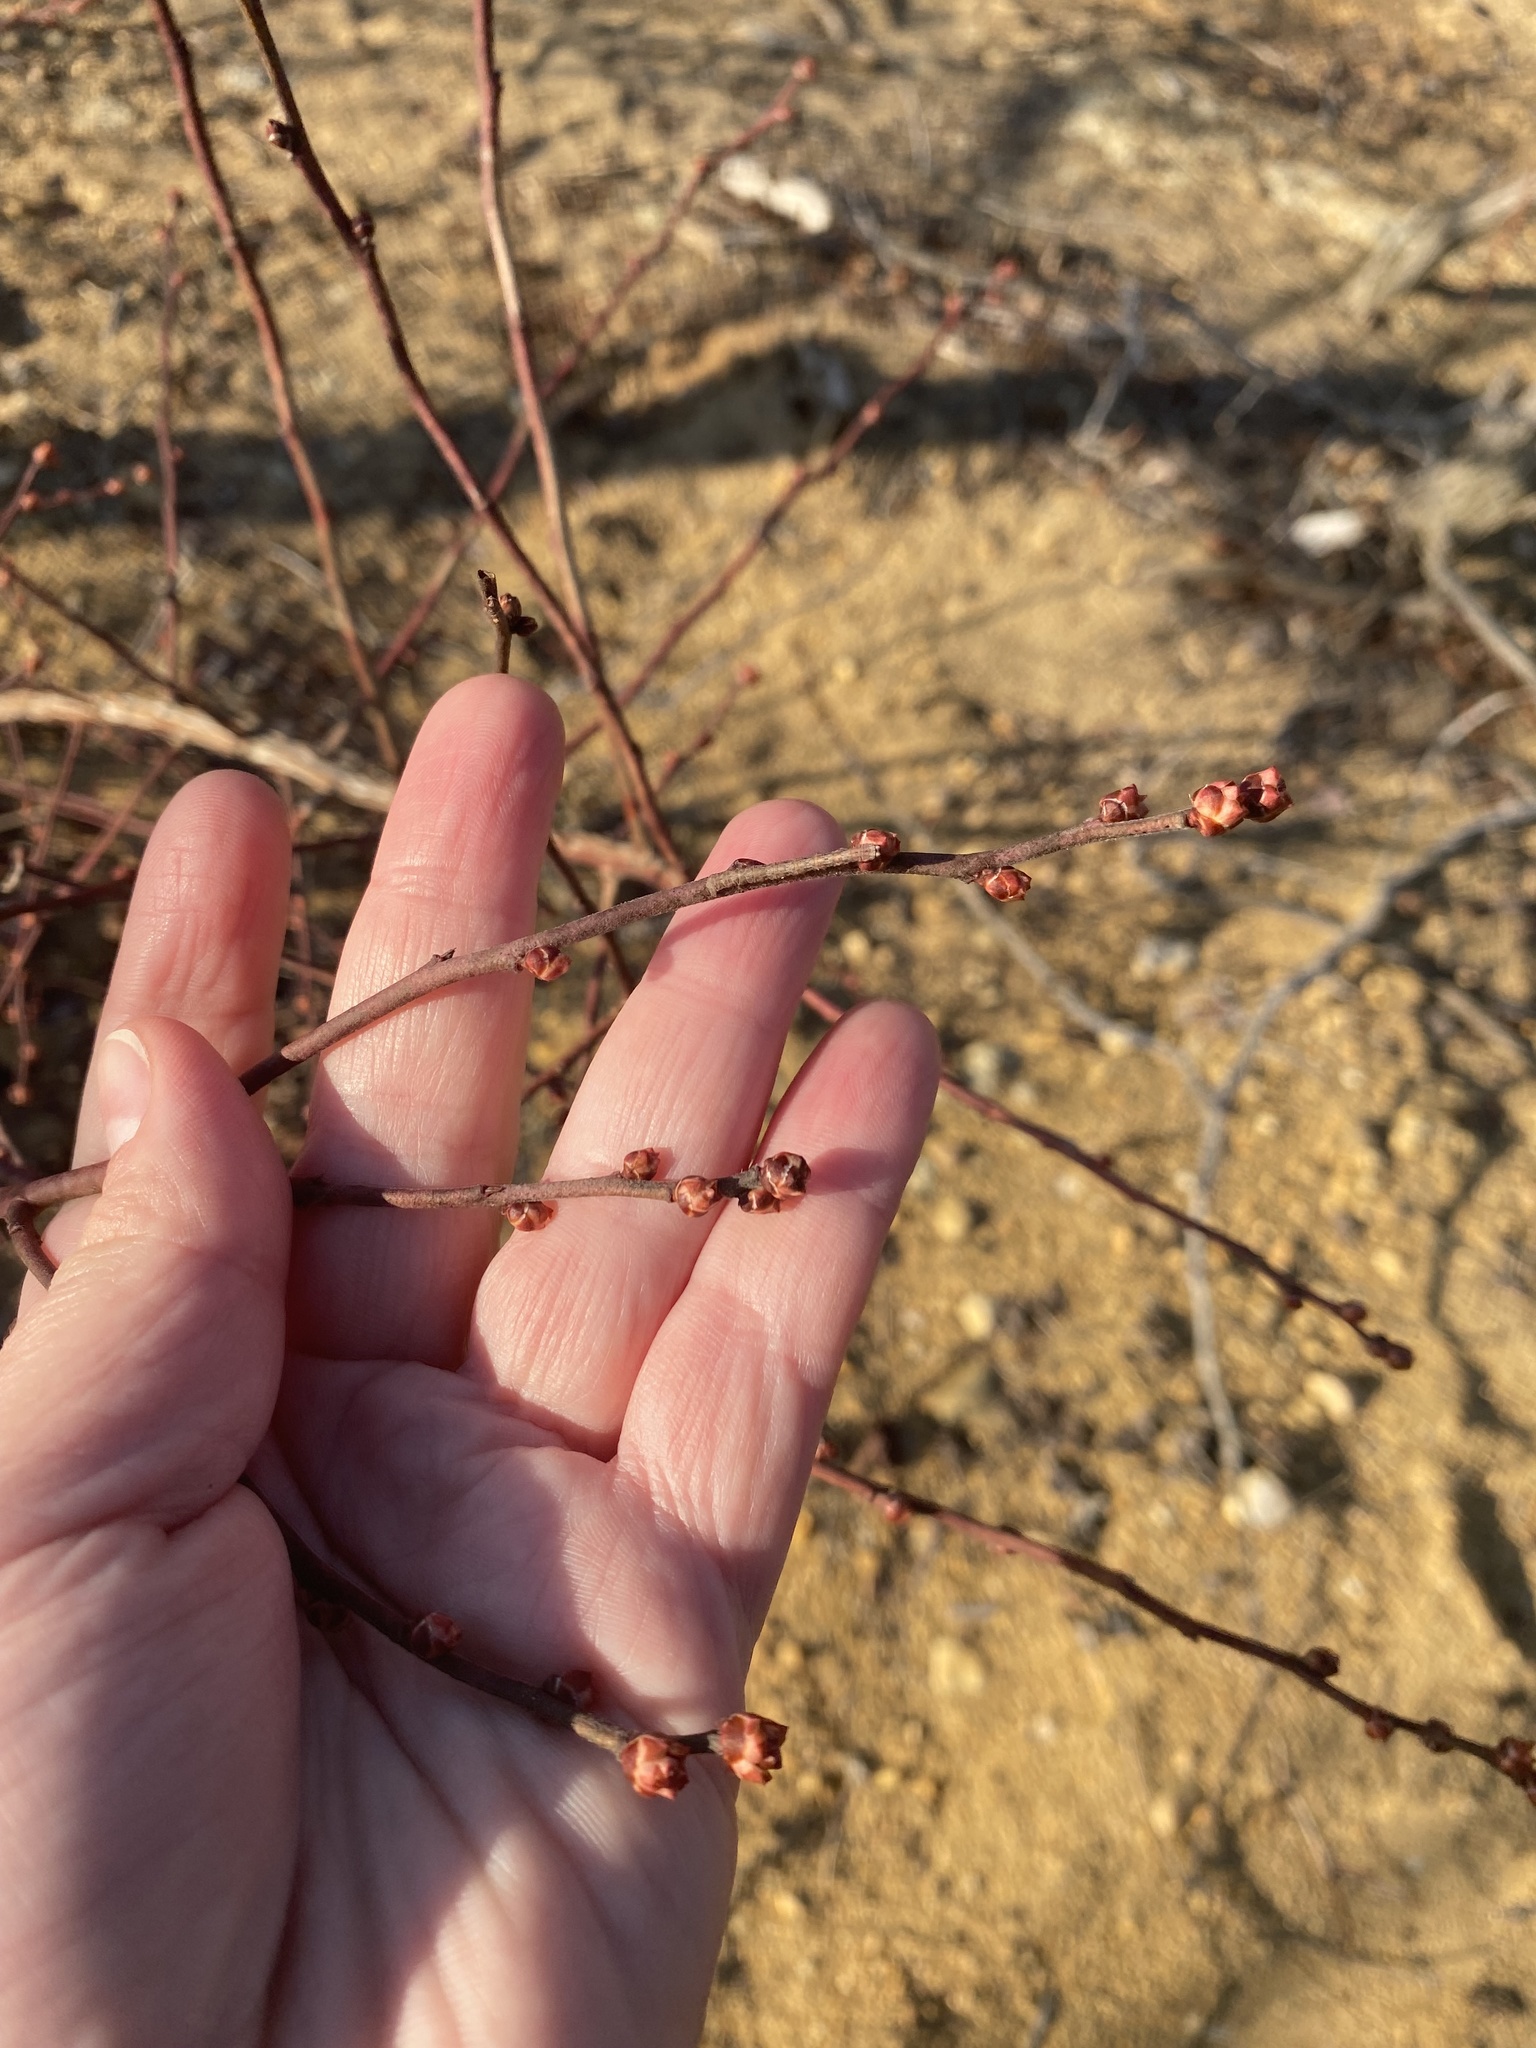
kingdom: Plantae
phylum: Tracheophyta
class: Magnoliopsida
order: Ericales
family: Ericaceae
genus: Vaccinium
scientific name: Vaccinium corymbosum
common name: Blueberry
